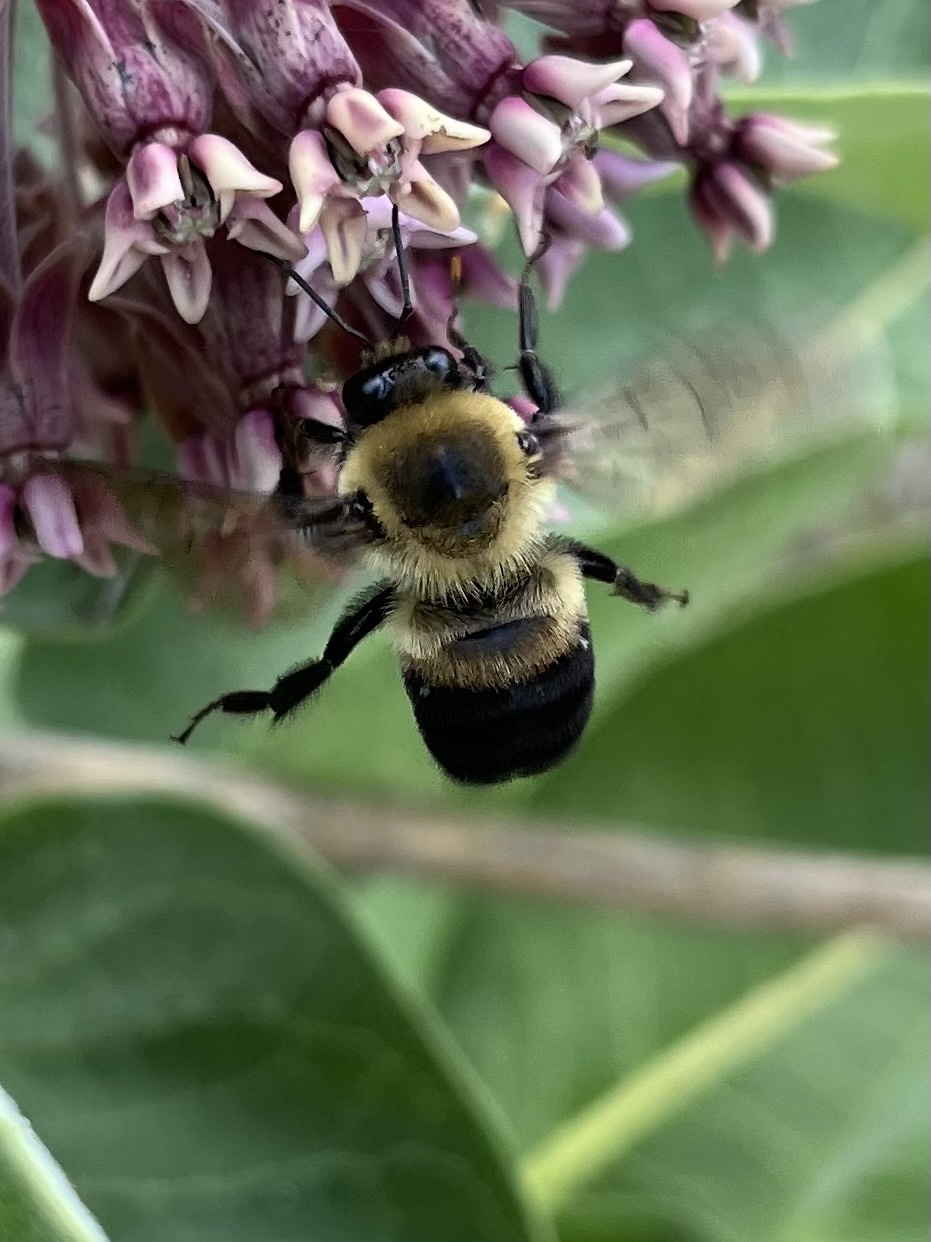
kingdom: Animalia
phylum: Arthropoda
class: Insecta
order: Hymenoptera
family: Apidae
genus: Bombus
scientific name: Bombus griseocollis
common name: Brown-belted bumble bee
